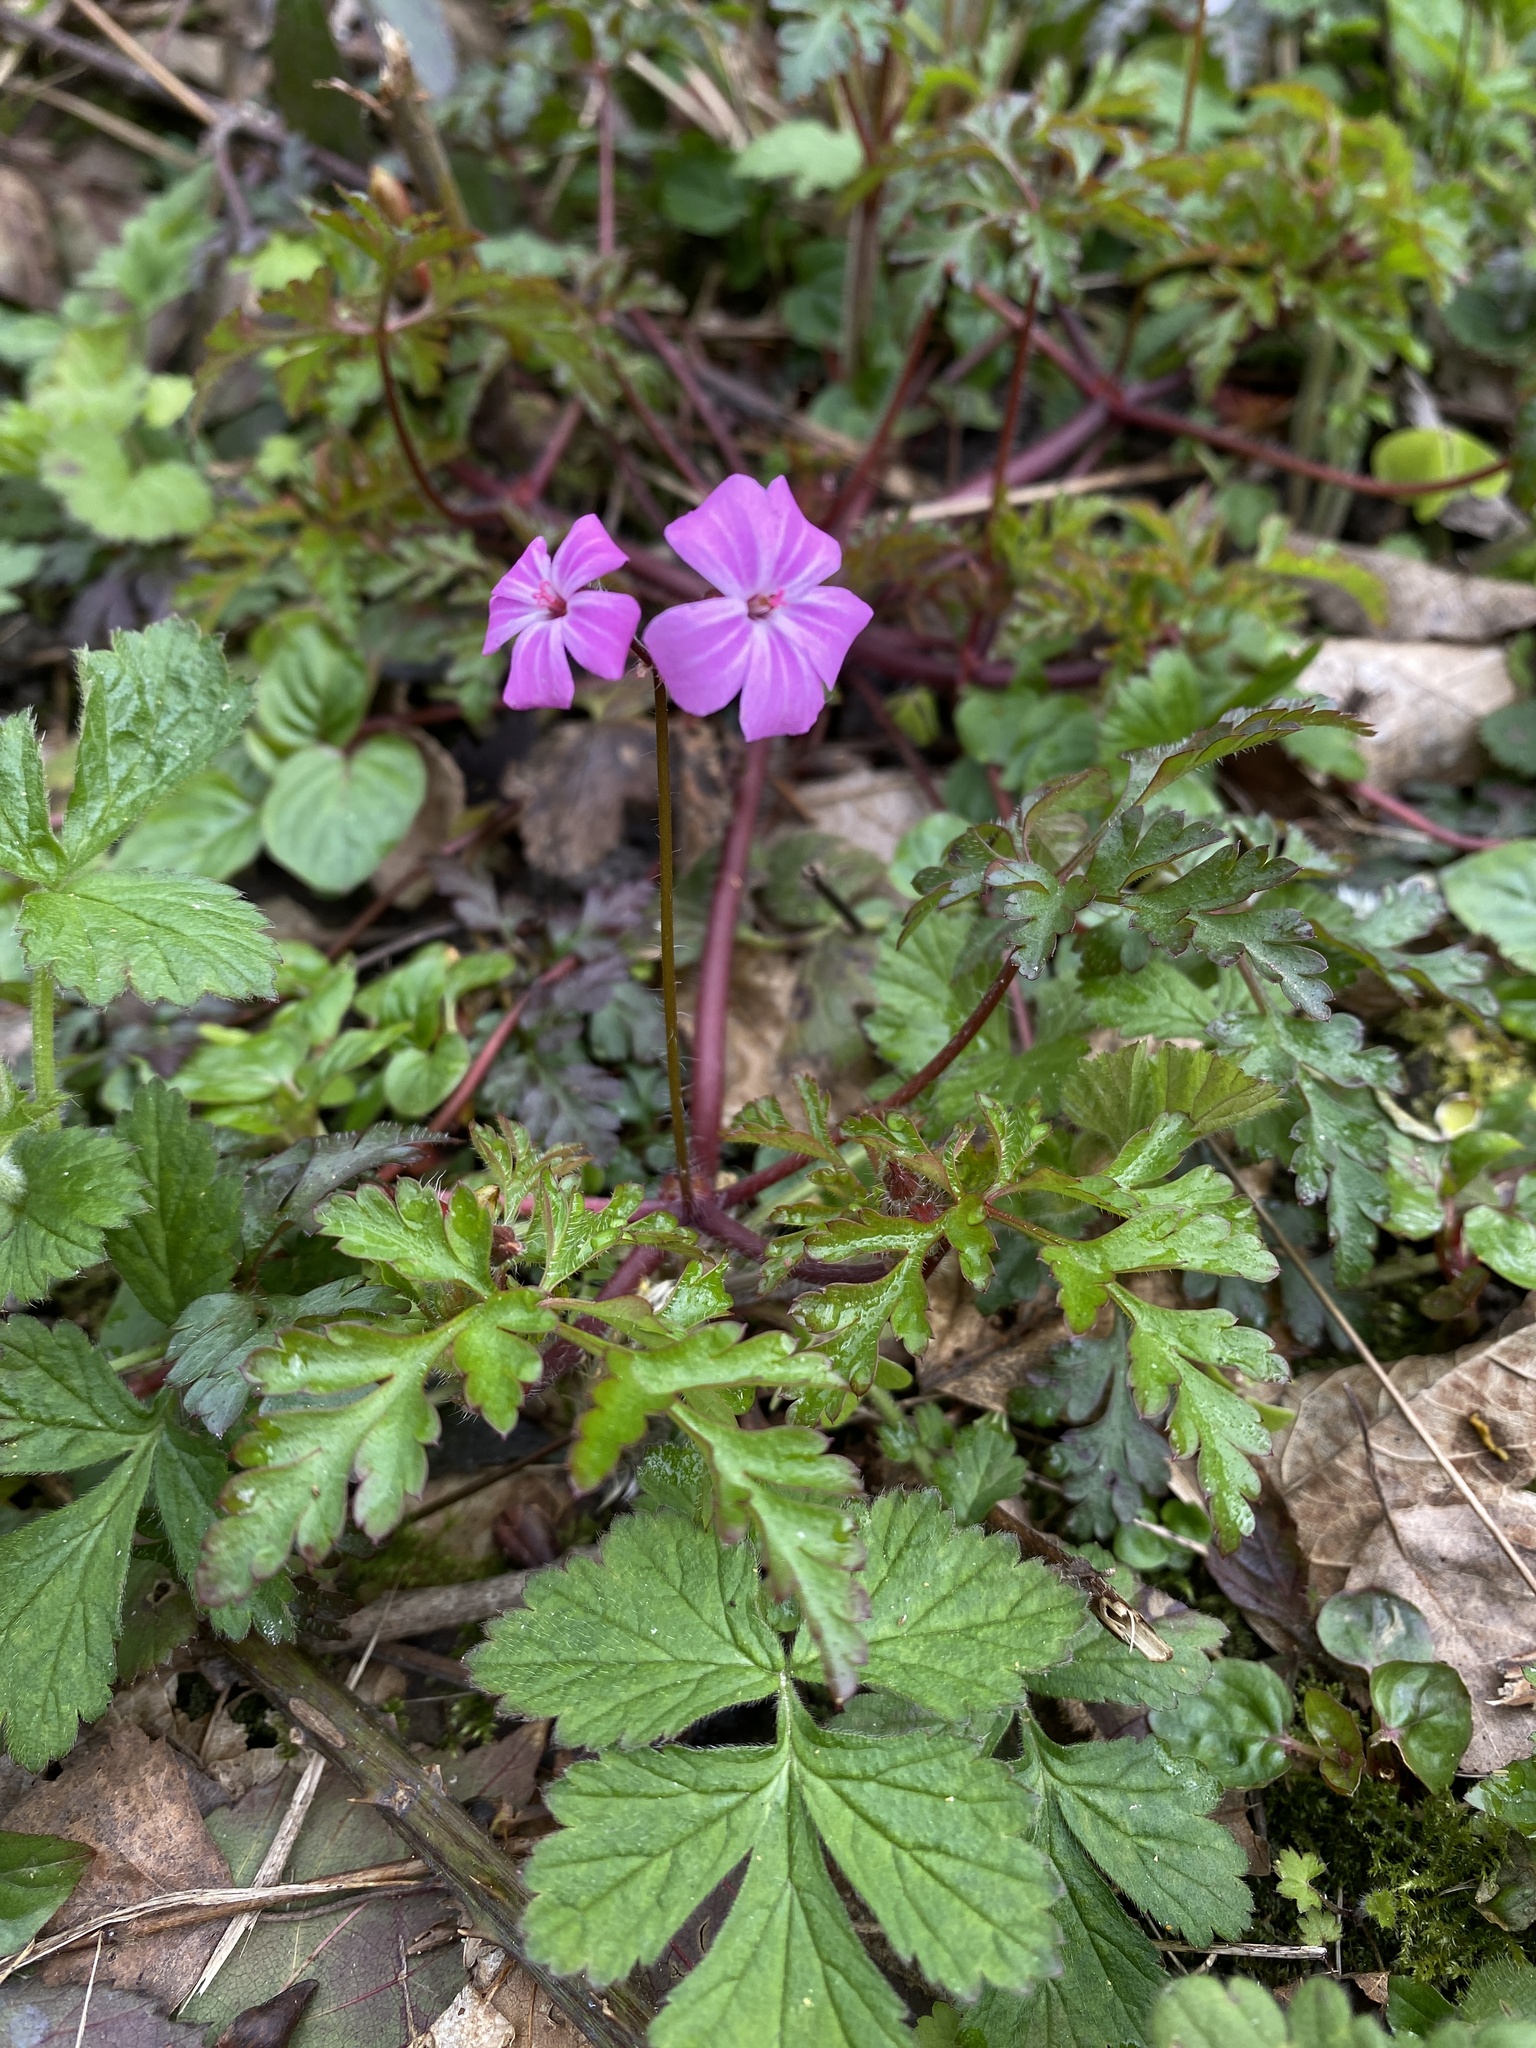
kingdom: Plantae
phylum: Tracheophyta
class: Magnoliopsida
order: Geraniales
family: Geraniaceae
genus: Geranium
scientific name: Geranium robertianum
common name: Herb-robert
